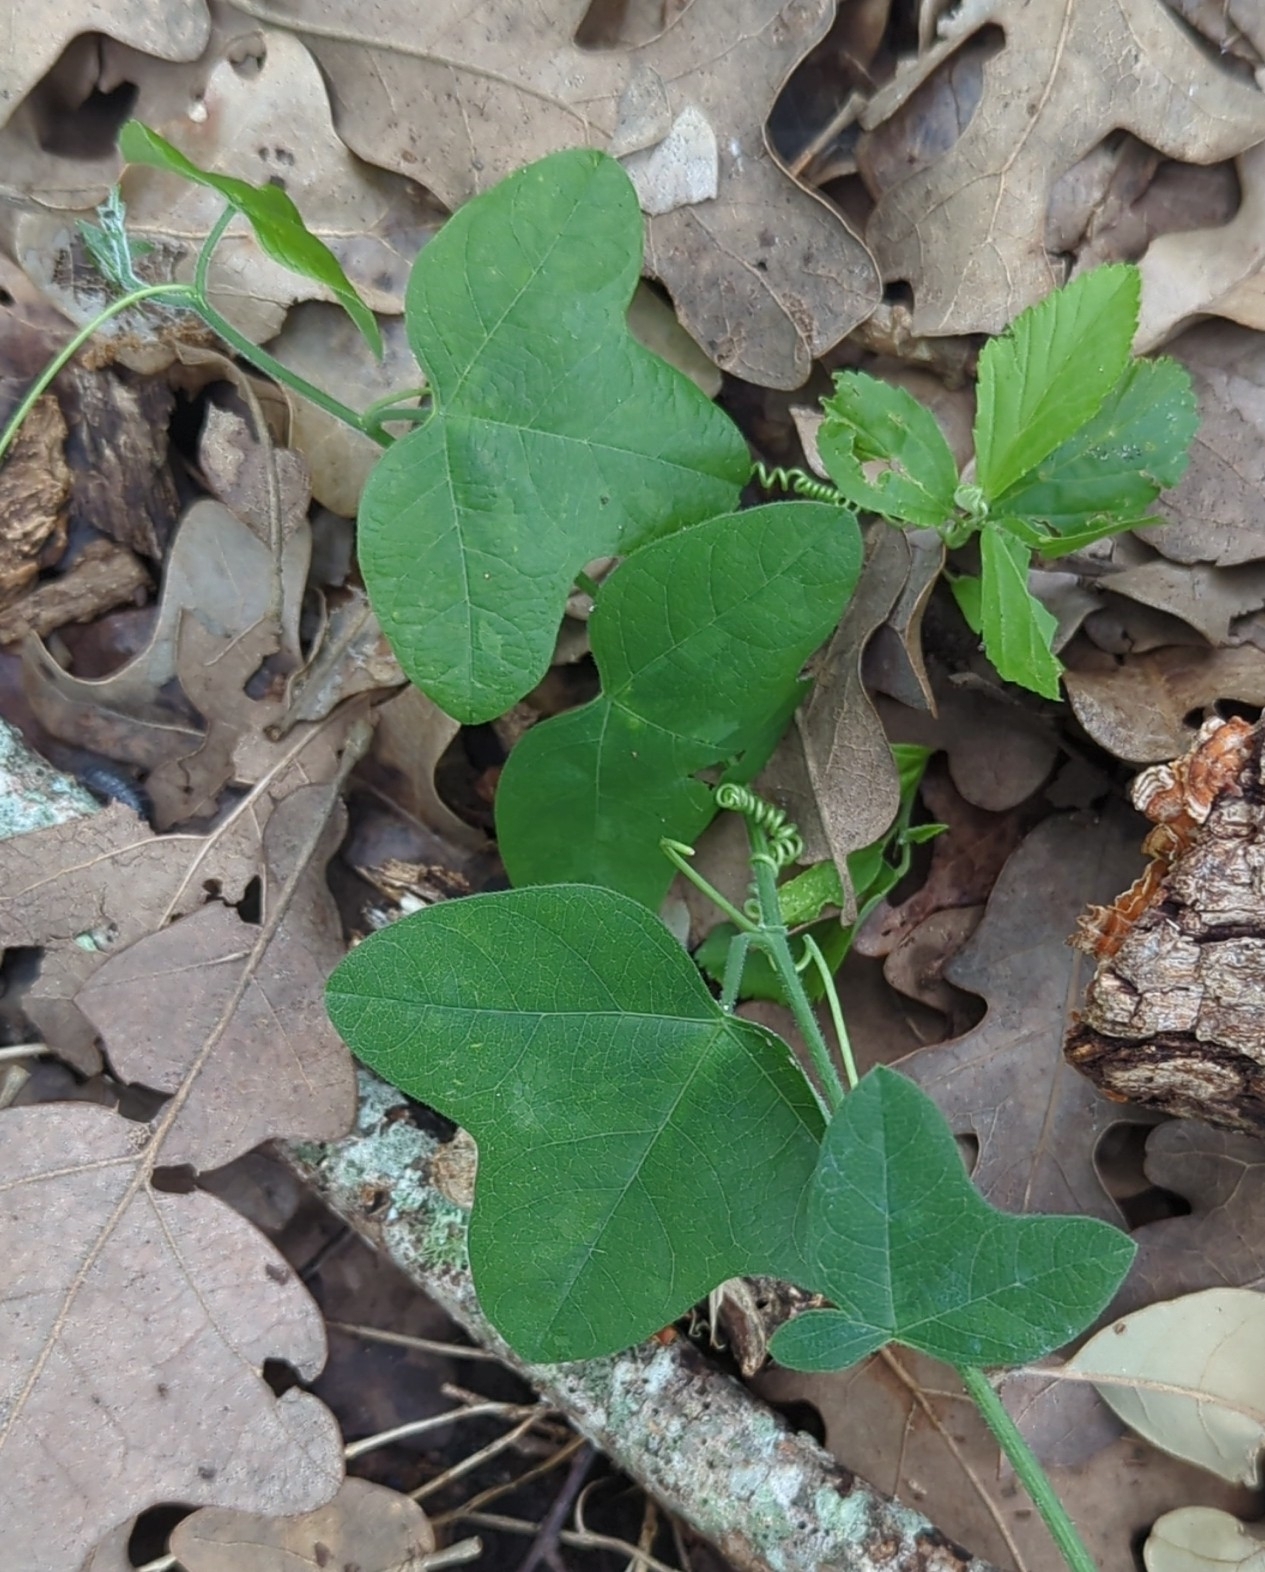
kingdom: Plantae
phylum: Tracheophyta
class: Magnoliopsida
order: Malpighiales
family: Passifloraceae
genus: Passiflora
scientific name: Passiflora lutea
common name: Yellow passionflower
